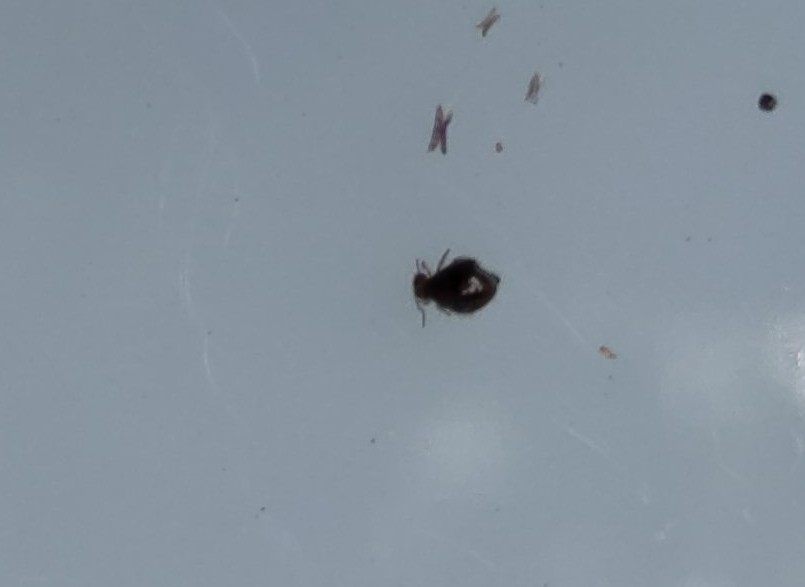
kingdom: Animalia
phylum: Arthropoda
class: Collembola
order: Symphypleona
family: Sminthuridae
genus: Allacma
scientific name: Allacma fusca
